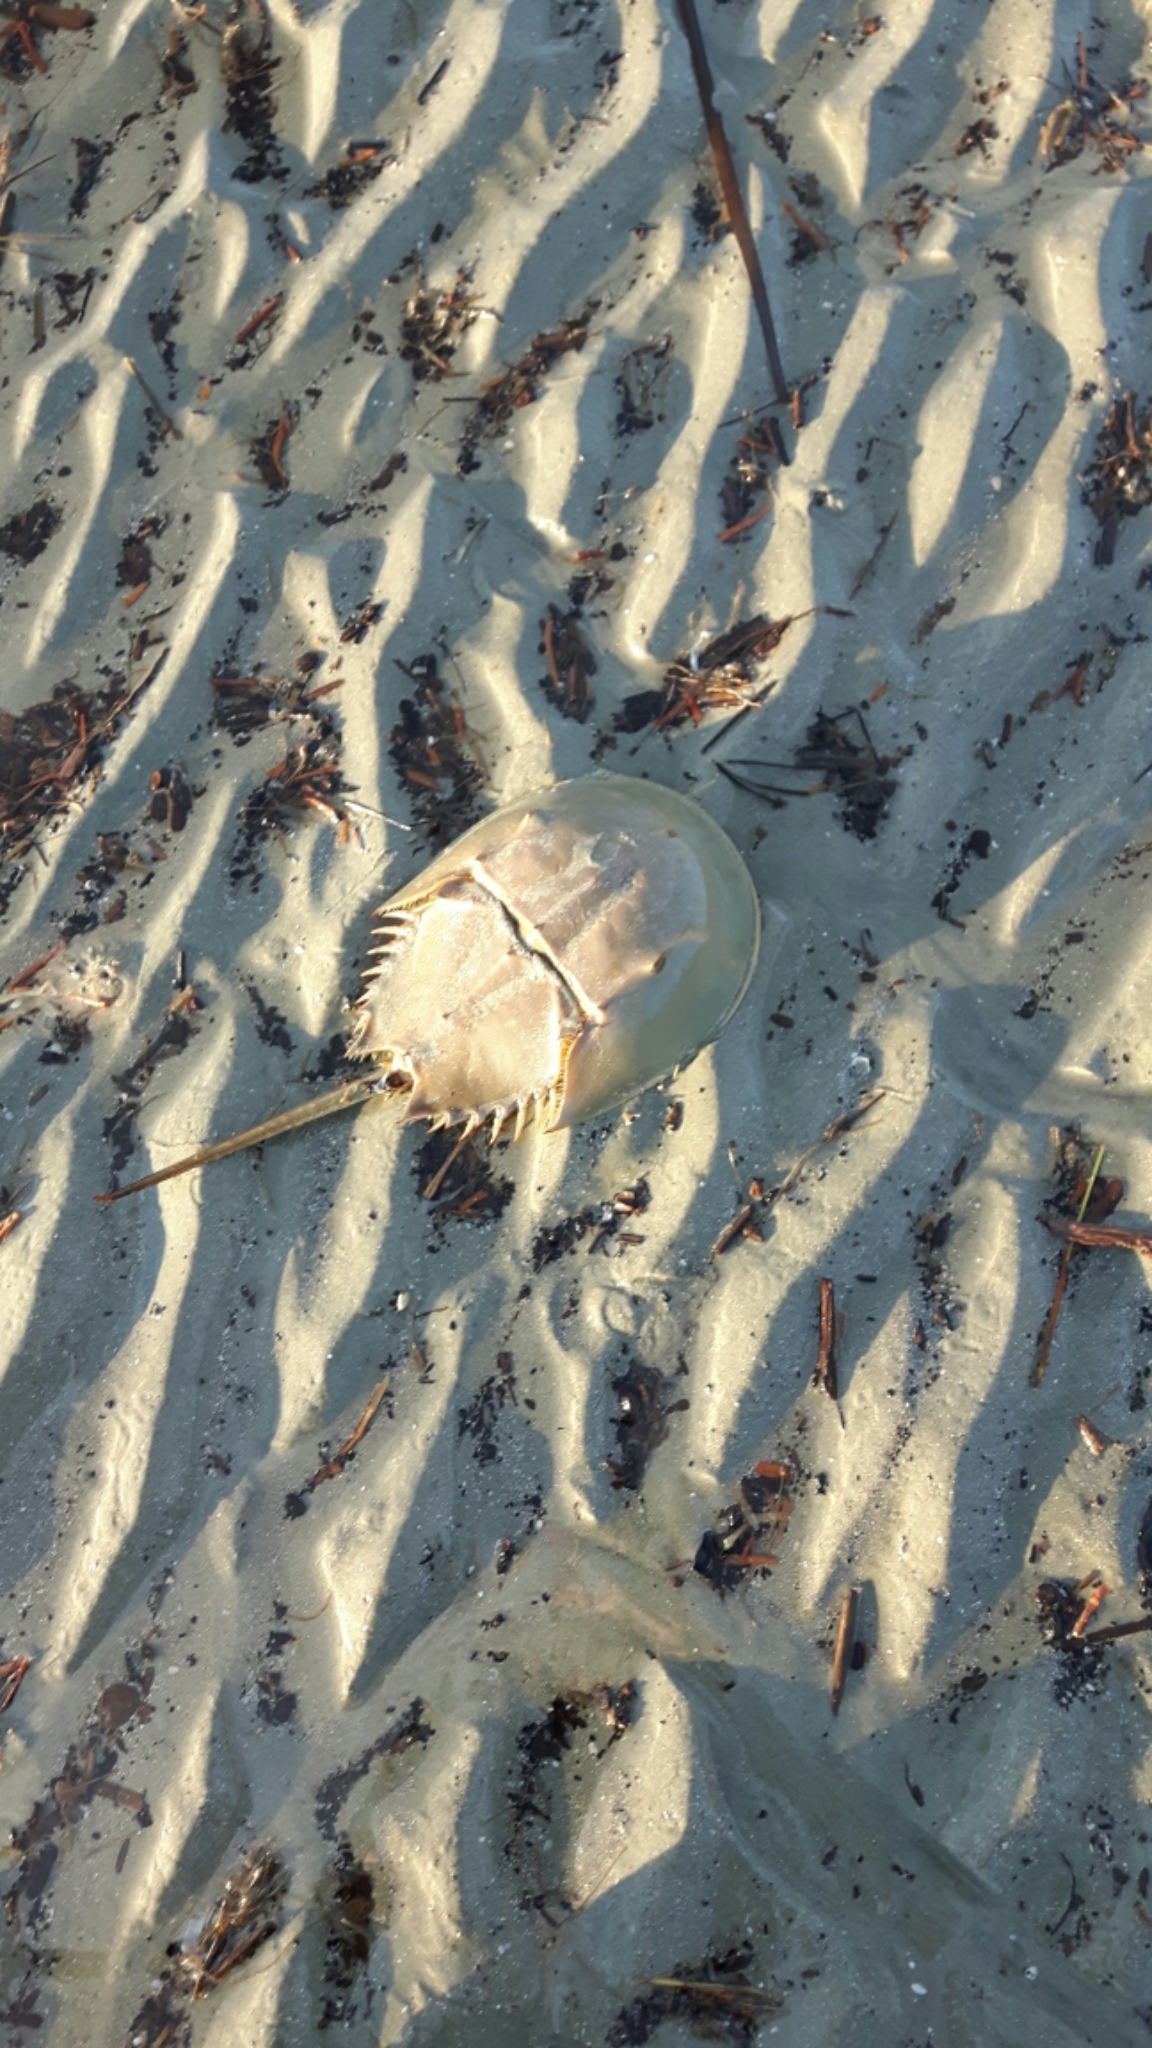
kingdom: Animalia
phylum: Arthropoda
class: Merostomata
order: Xiphosurida
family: Limulidae
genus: Limulus
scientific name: Limulus polyphemus
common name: Horseshoe crab
